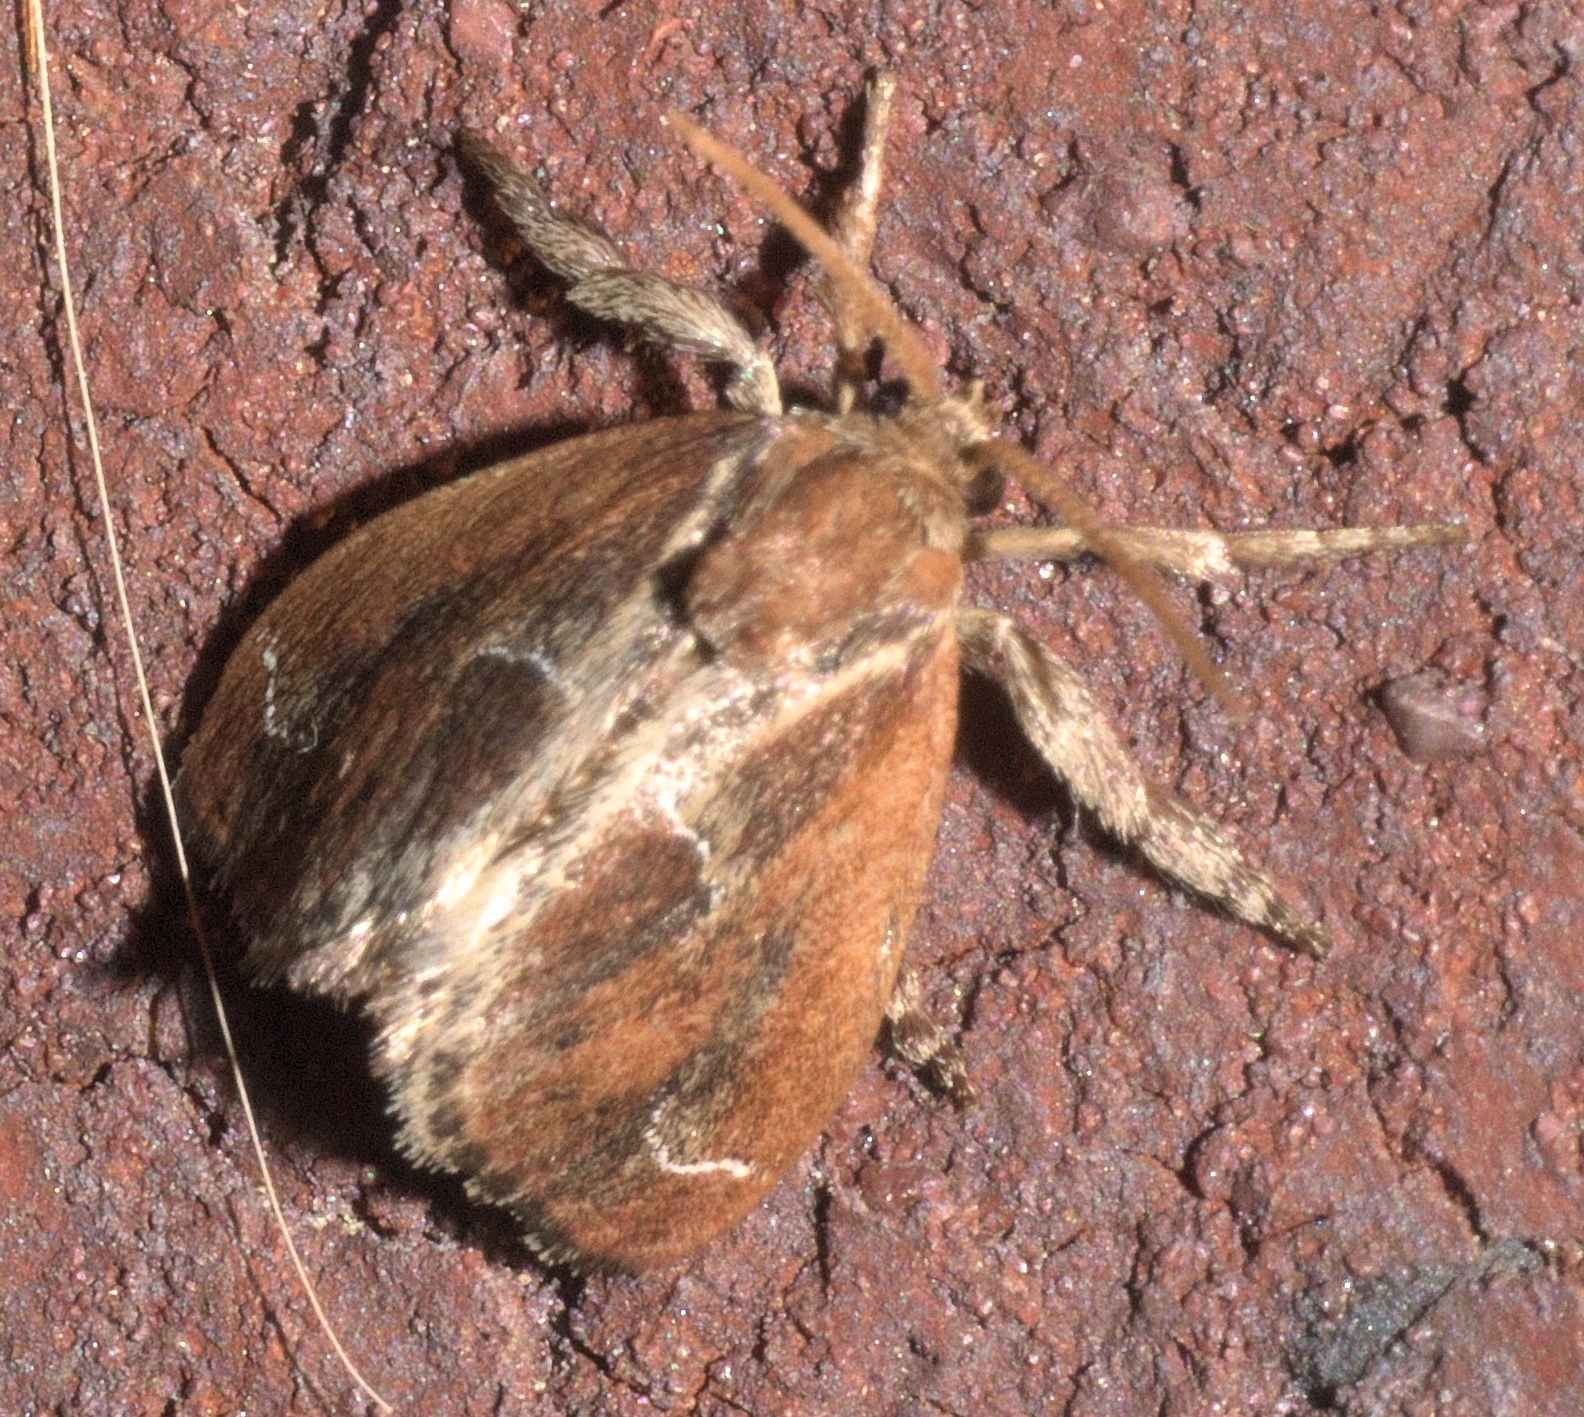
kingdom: Animalia
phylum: Arthropoda
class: Insecta
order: Lepidoptera
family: Limacodidae
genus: Adoneta
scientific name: Adoneta spinuloides
